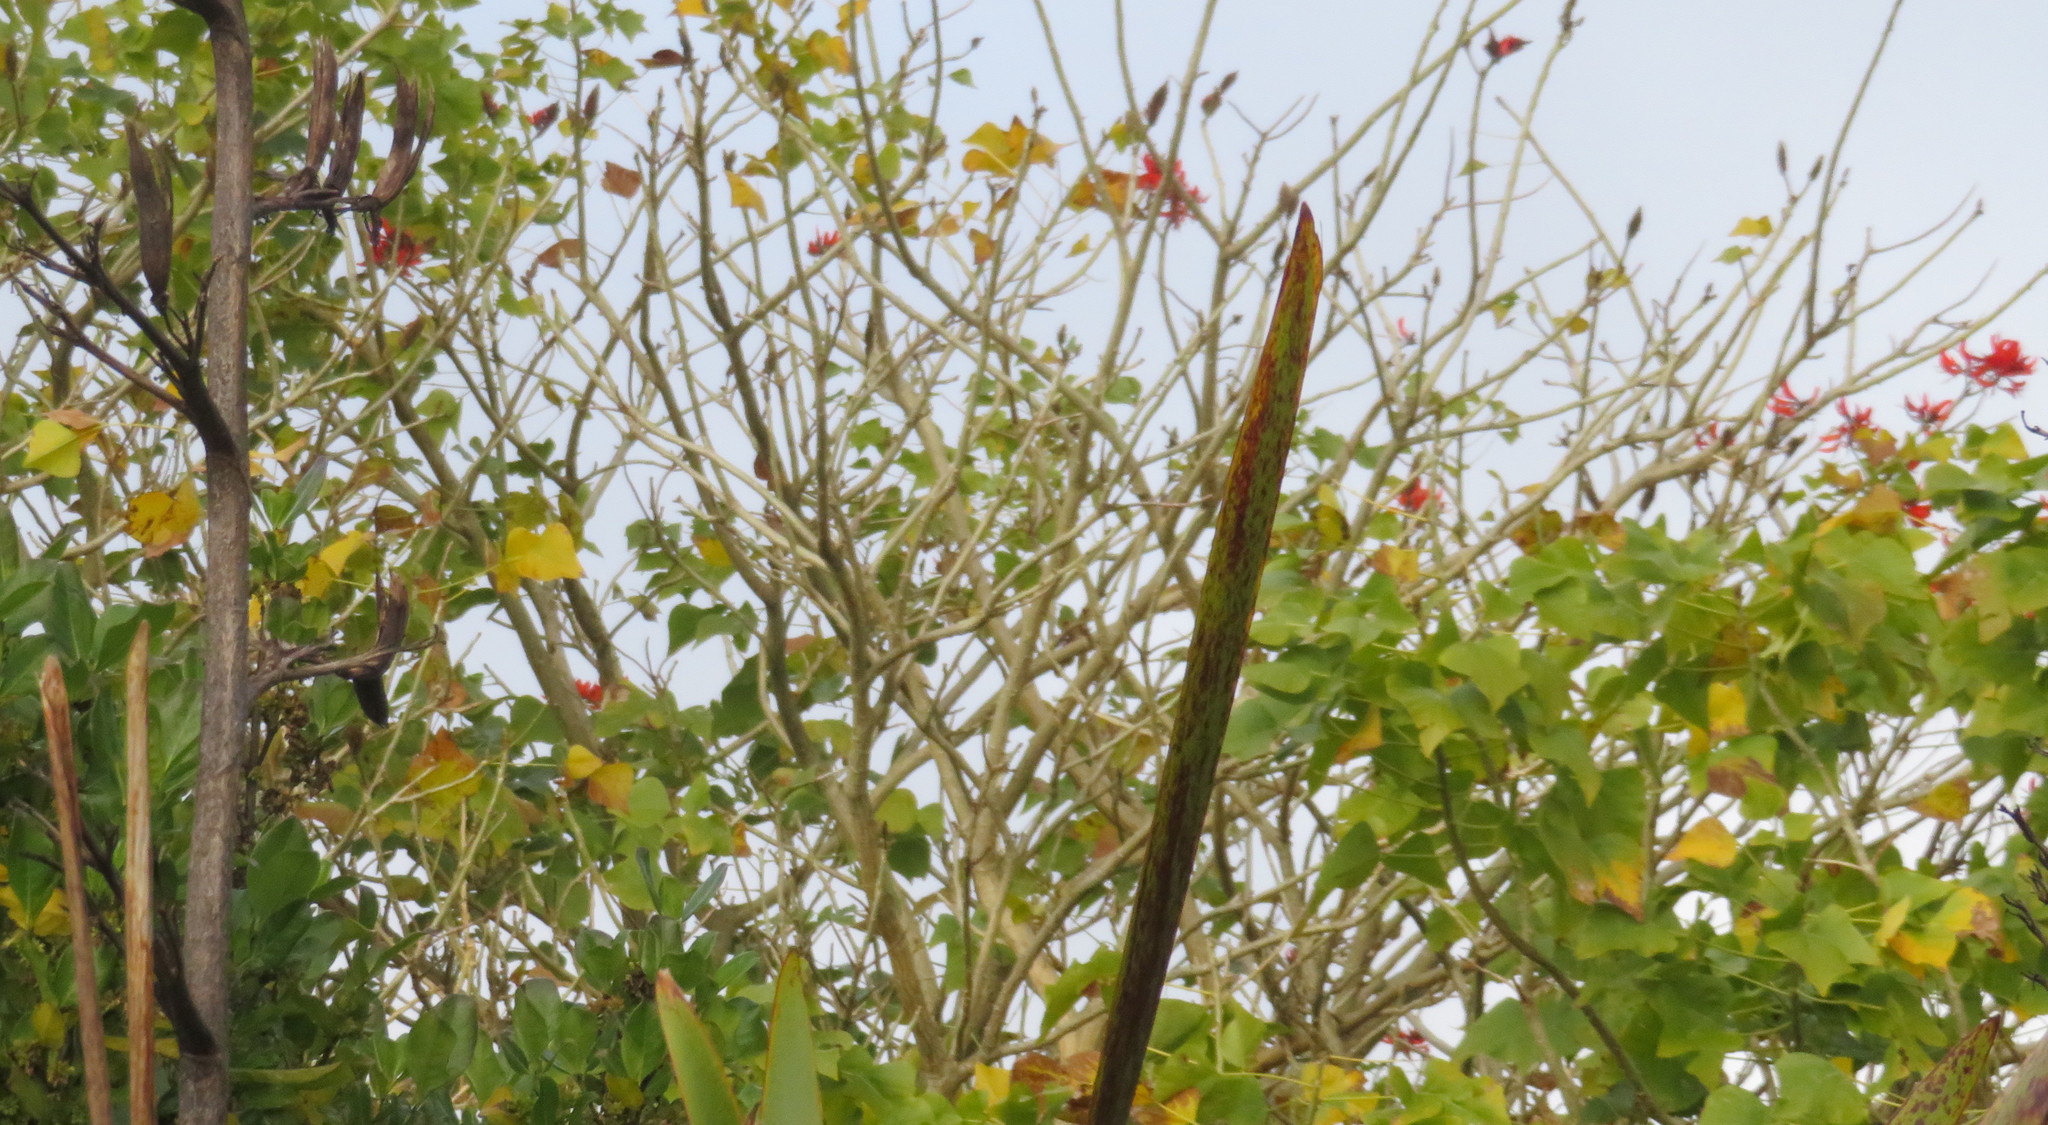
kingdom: Plantae
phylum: Tracheophyta
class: Magnoliopsida
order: Fabales
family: Fabaceae
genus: Erythrina
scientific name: Erythrina sykesii
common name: Coraltree
